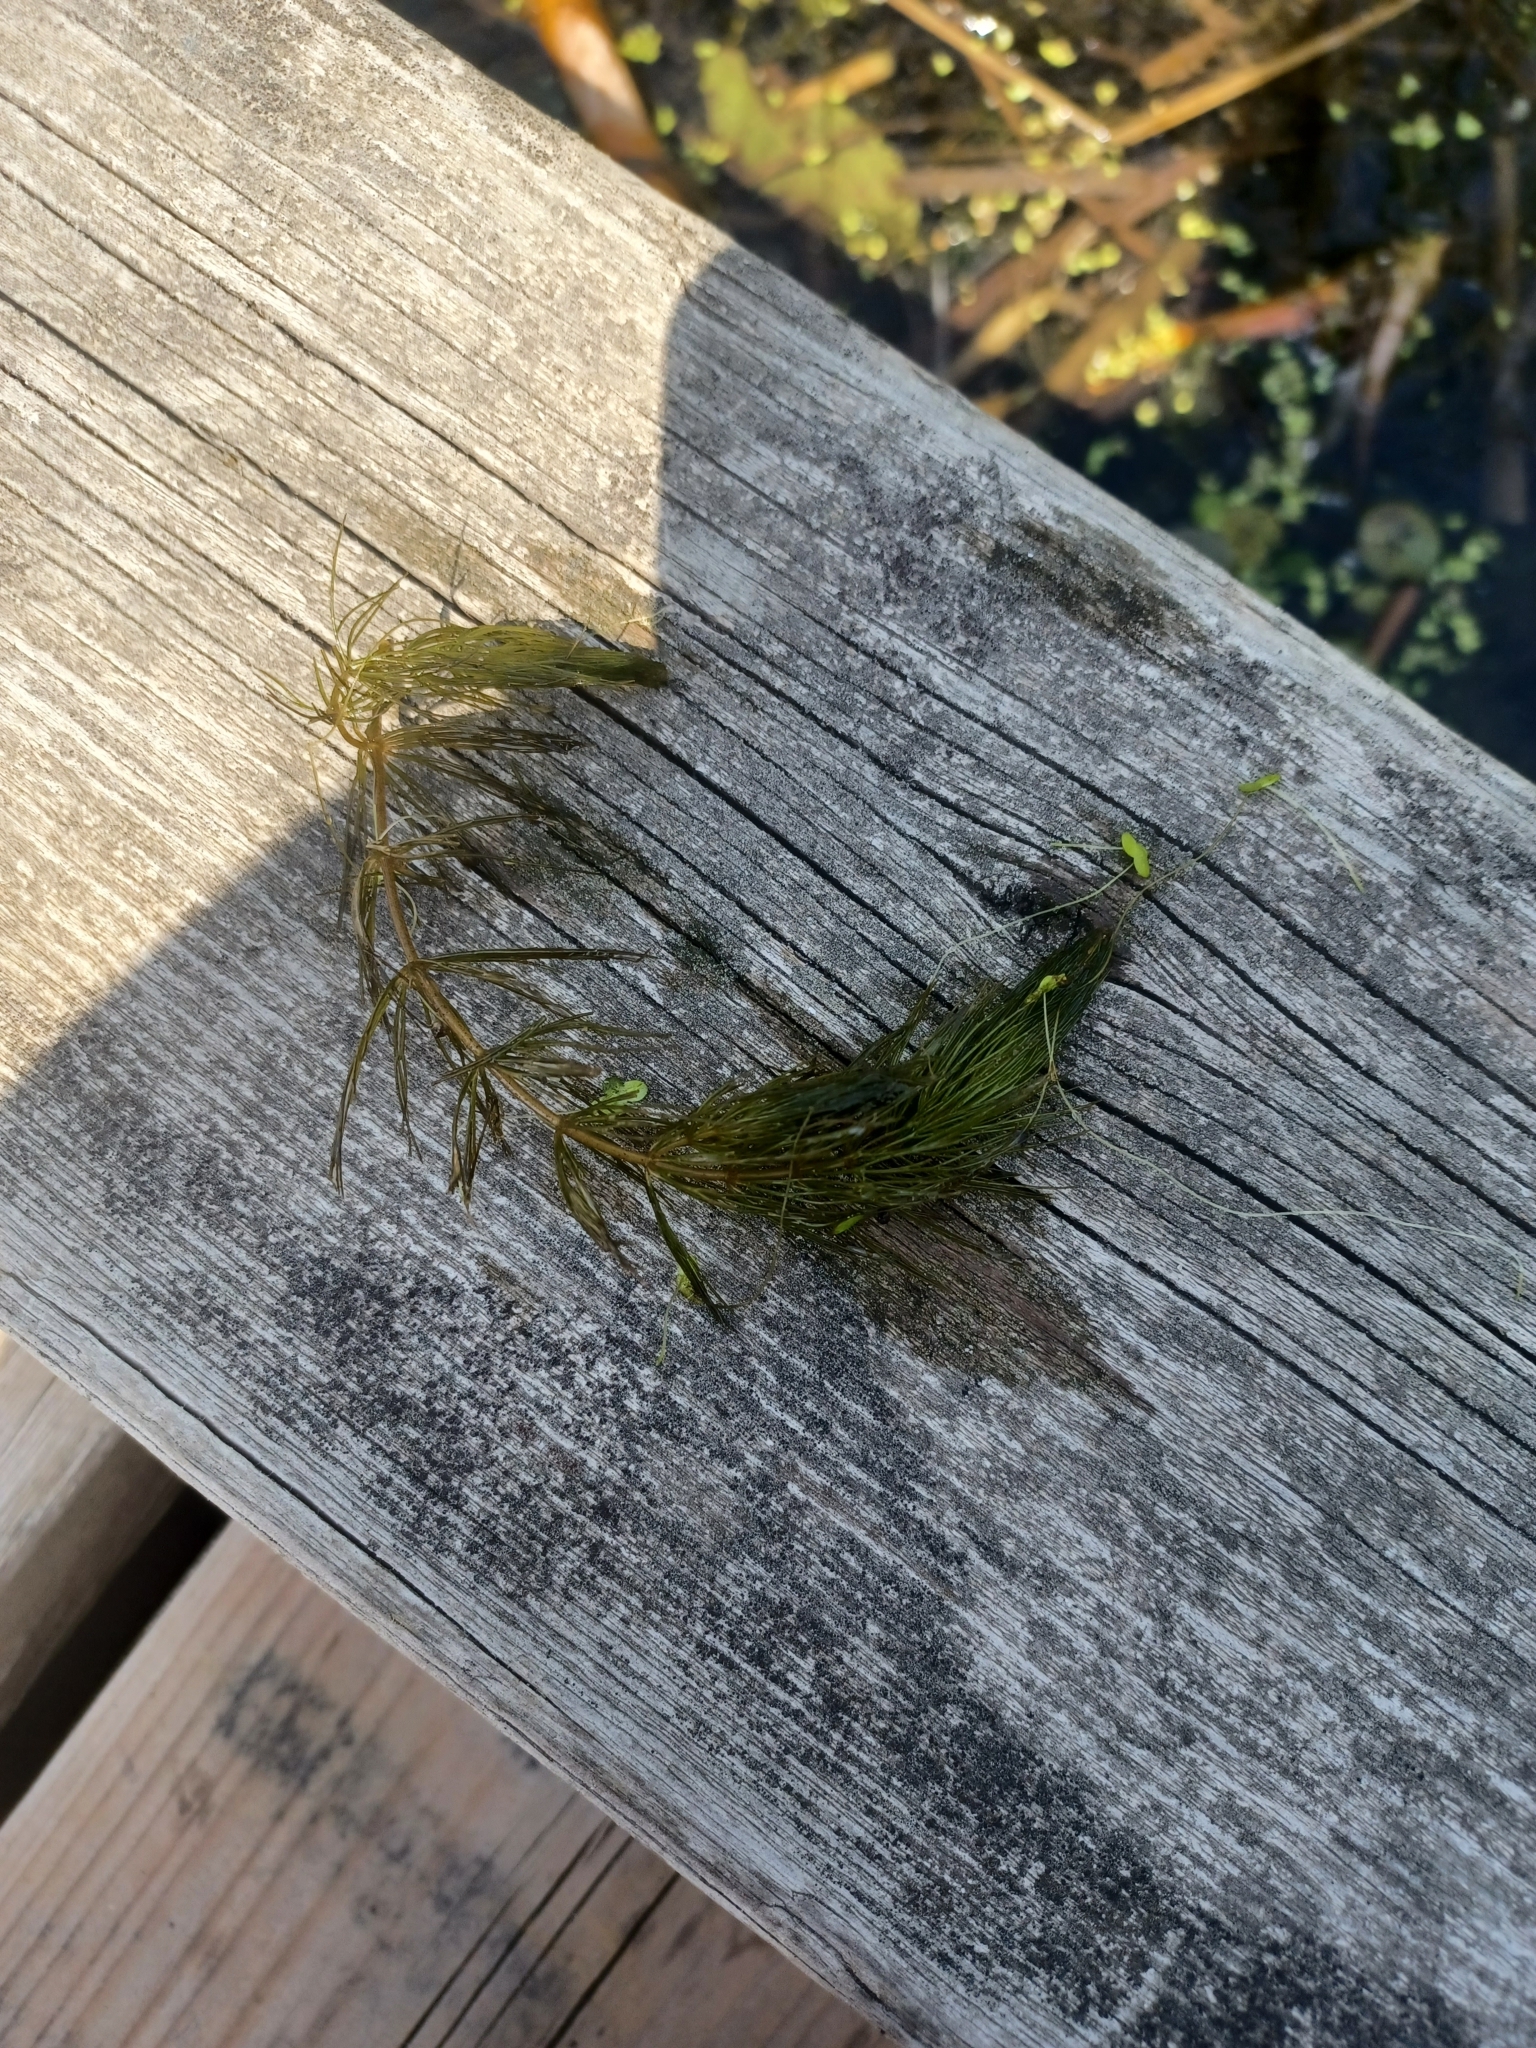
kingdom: Plantae
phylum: Tracheophyta
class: Magnoliopsida
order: Ceratophyllales
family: Ceratophyllaceae
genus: Ceratophyllum
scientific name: Ceratophyllum demersum
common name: Rigid hornwort
